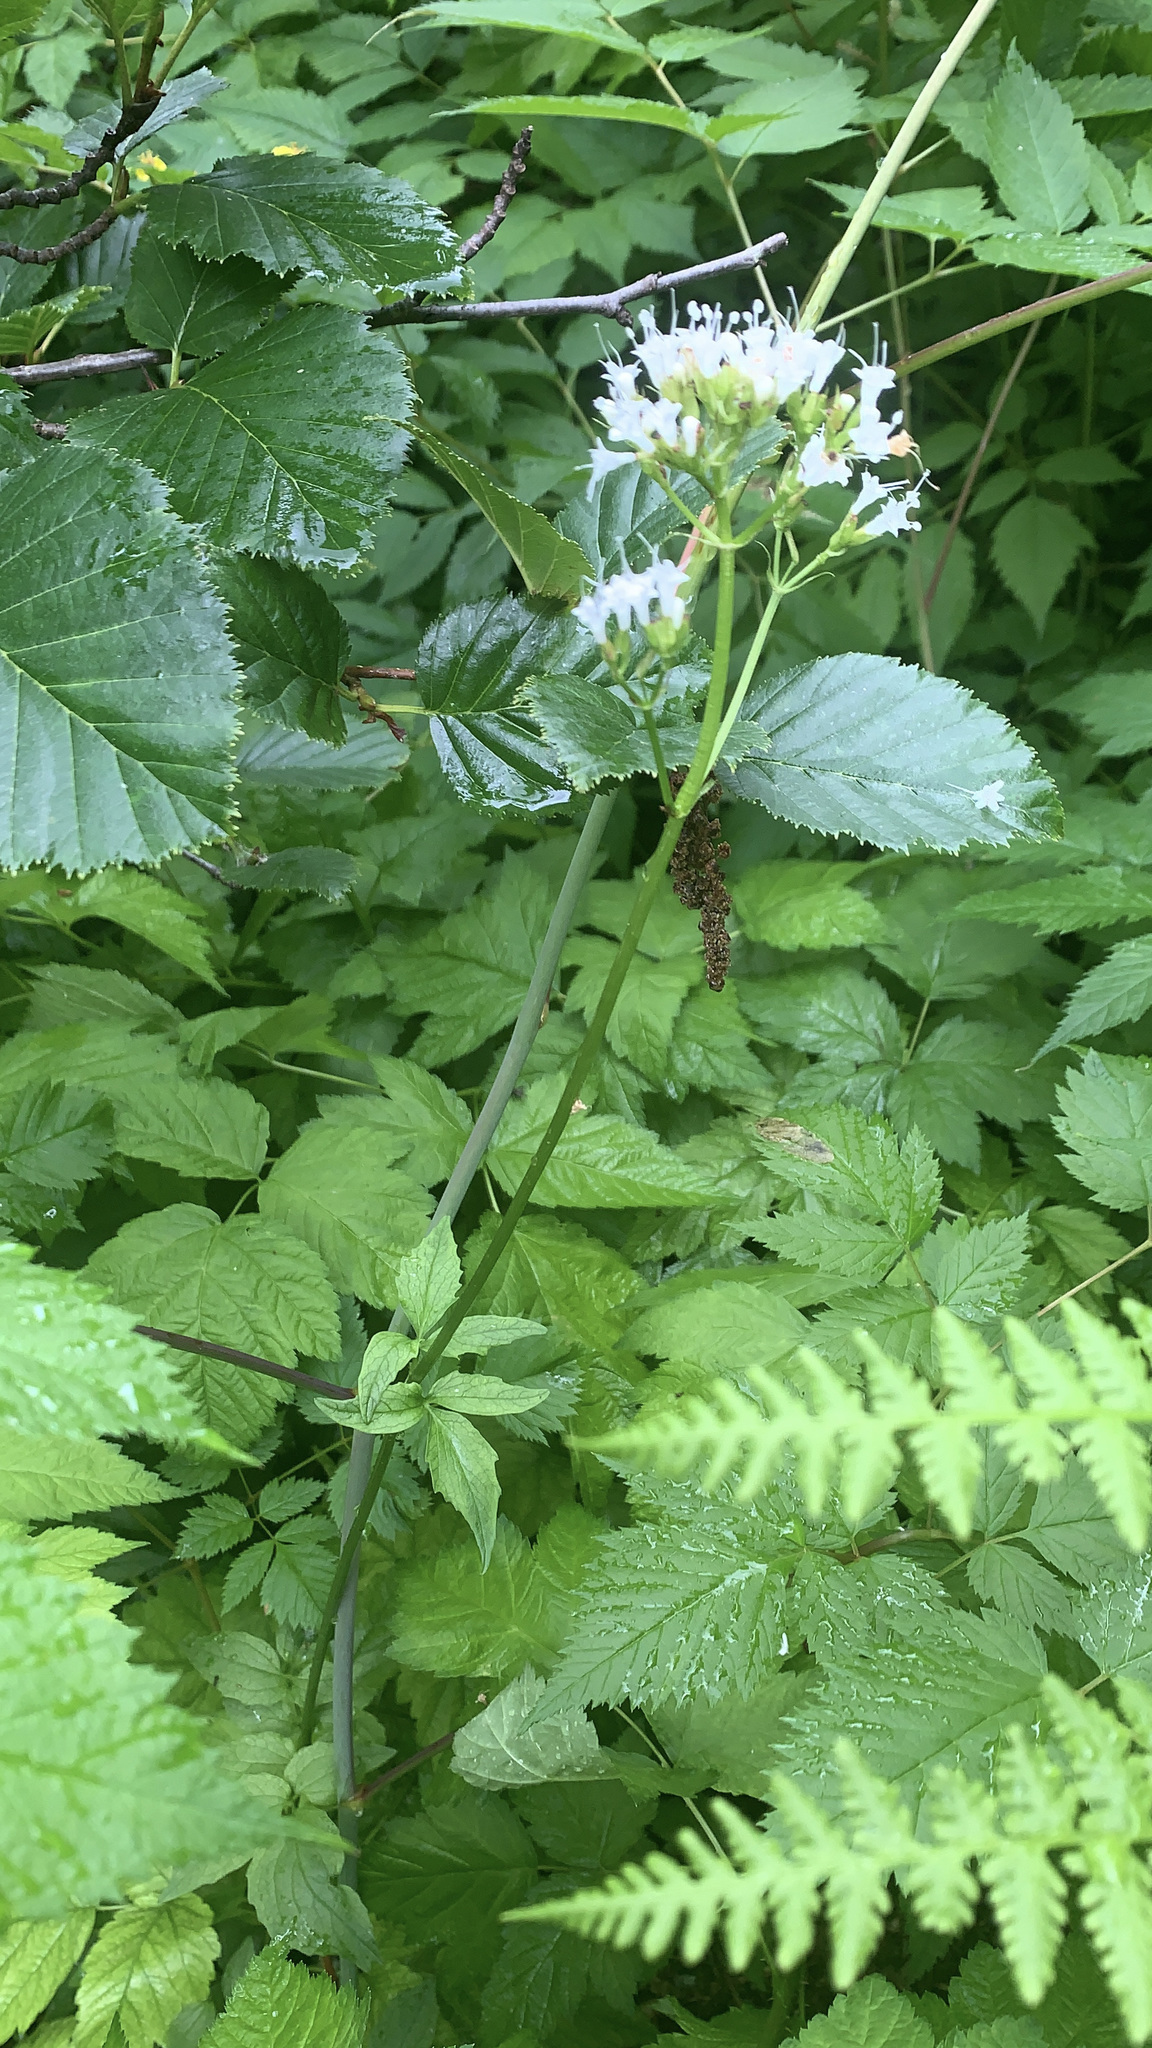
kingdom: Plantae
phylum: Tracheophyta
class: Magnoliopsida
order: Dipsacales
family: Caprifoliaceae
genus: Valeriana
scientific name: Valeriana sitchensis
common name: Pacific valerian
